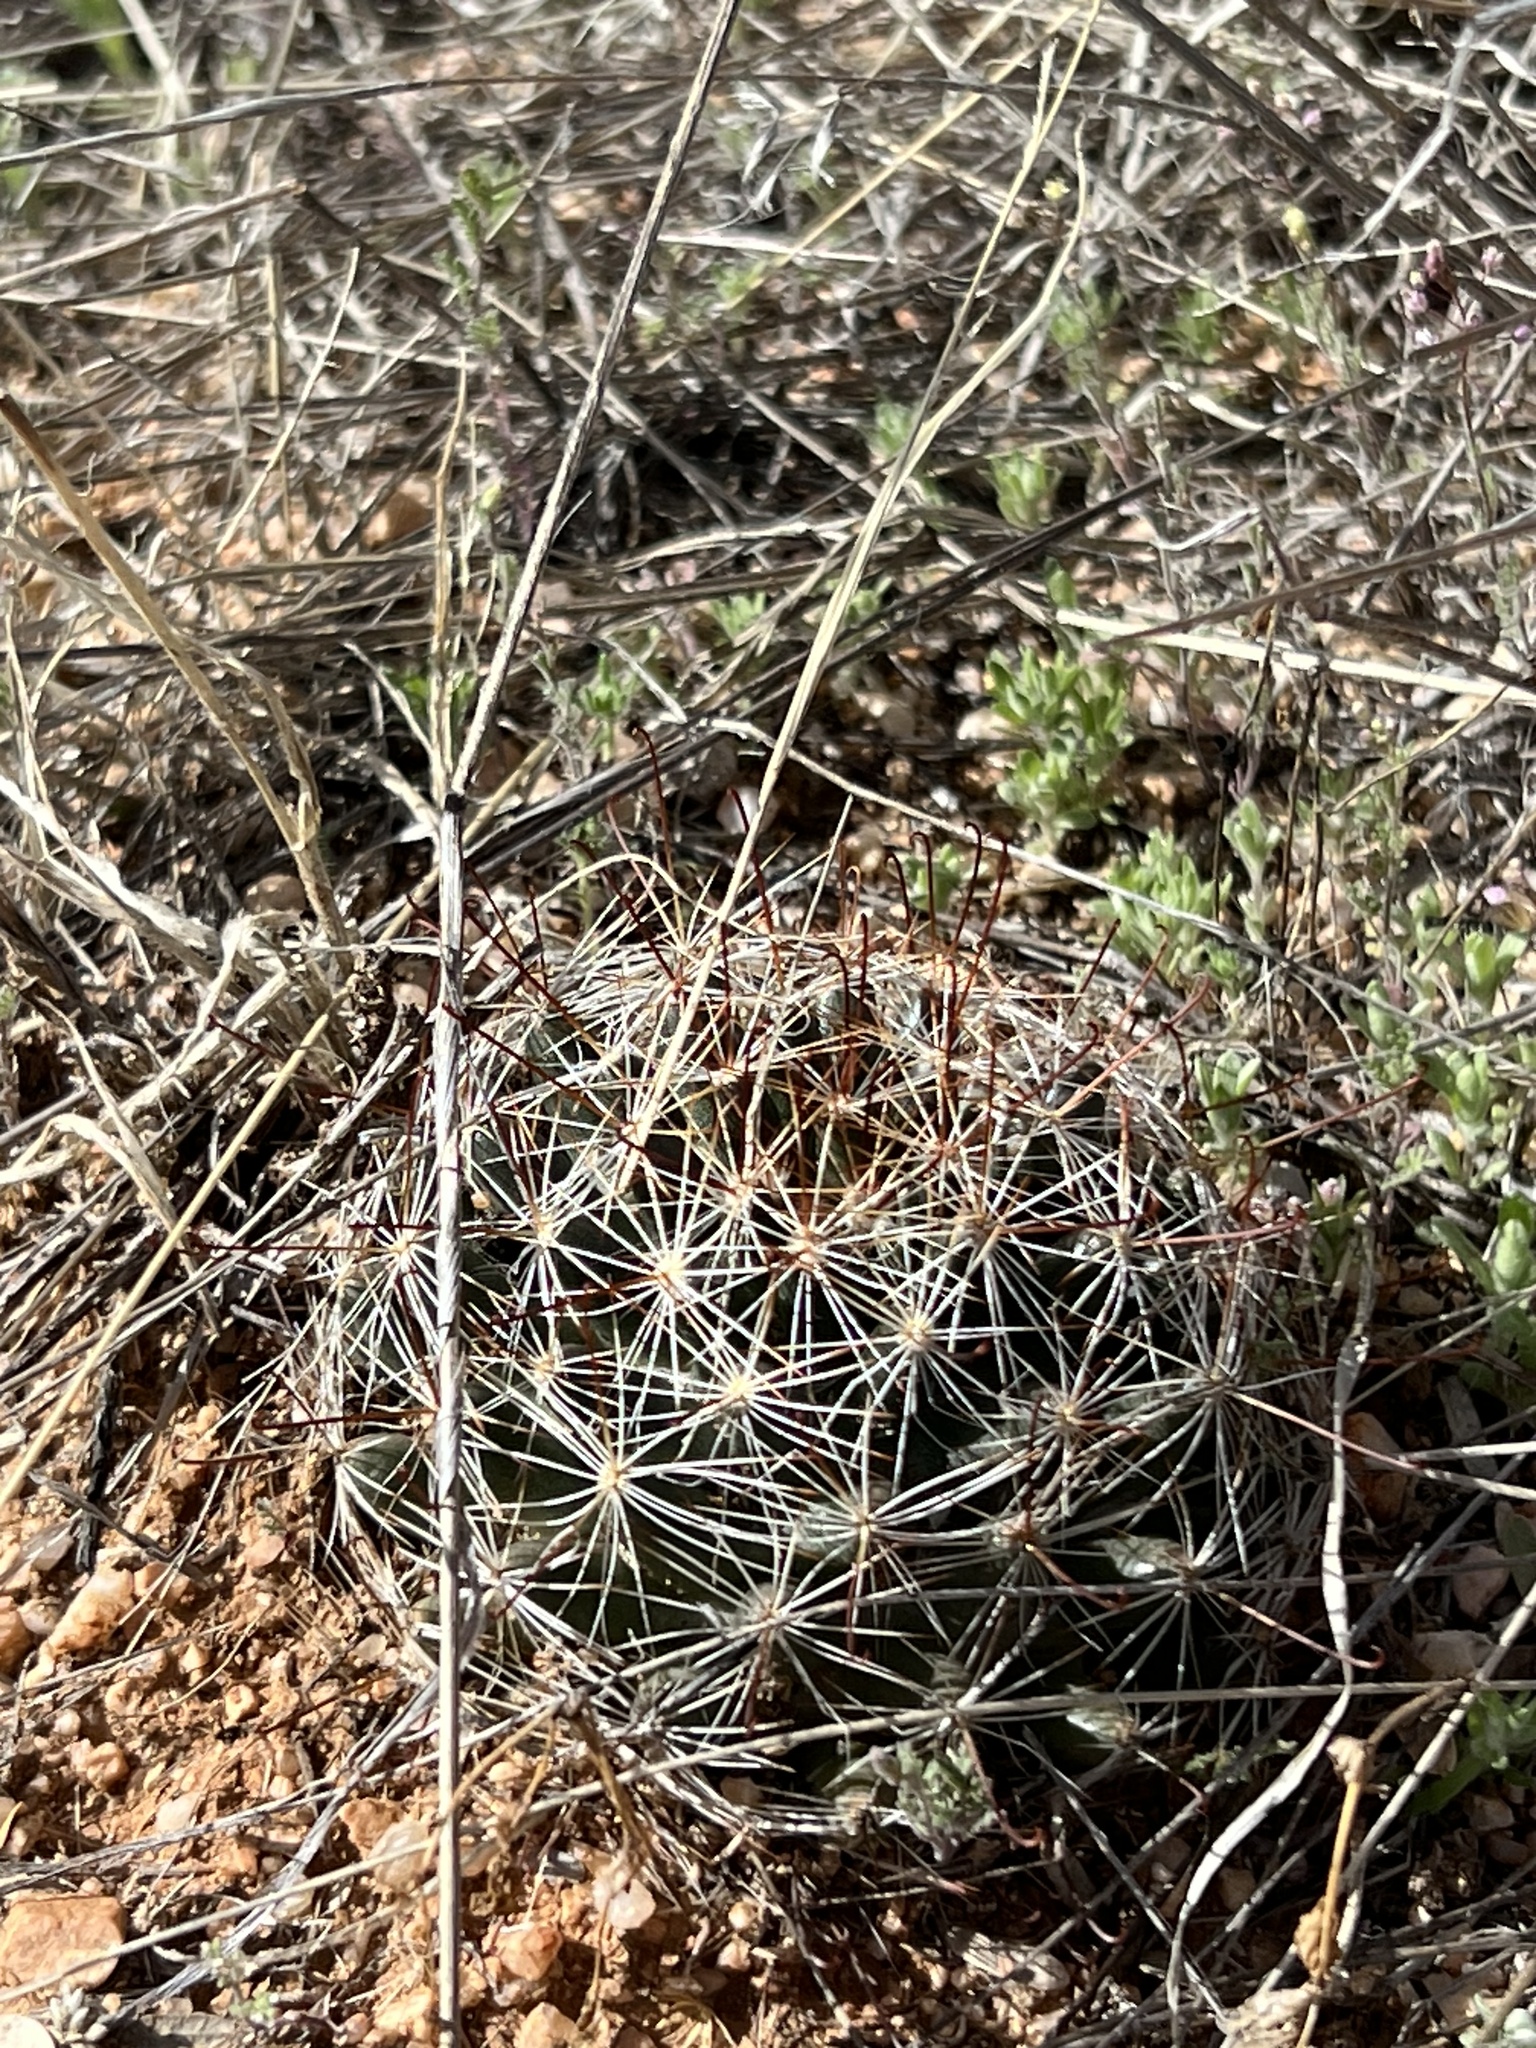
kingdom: Plantae
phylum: Tracheophyta
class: Magnoliopsida
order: Caryophyllales
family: Cactaceae
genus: Cochemiea
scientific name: Cochemiea wrightii
